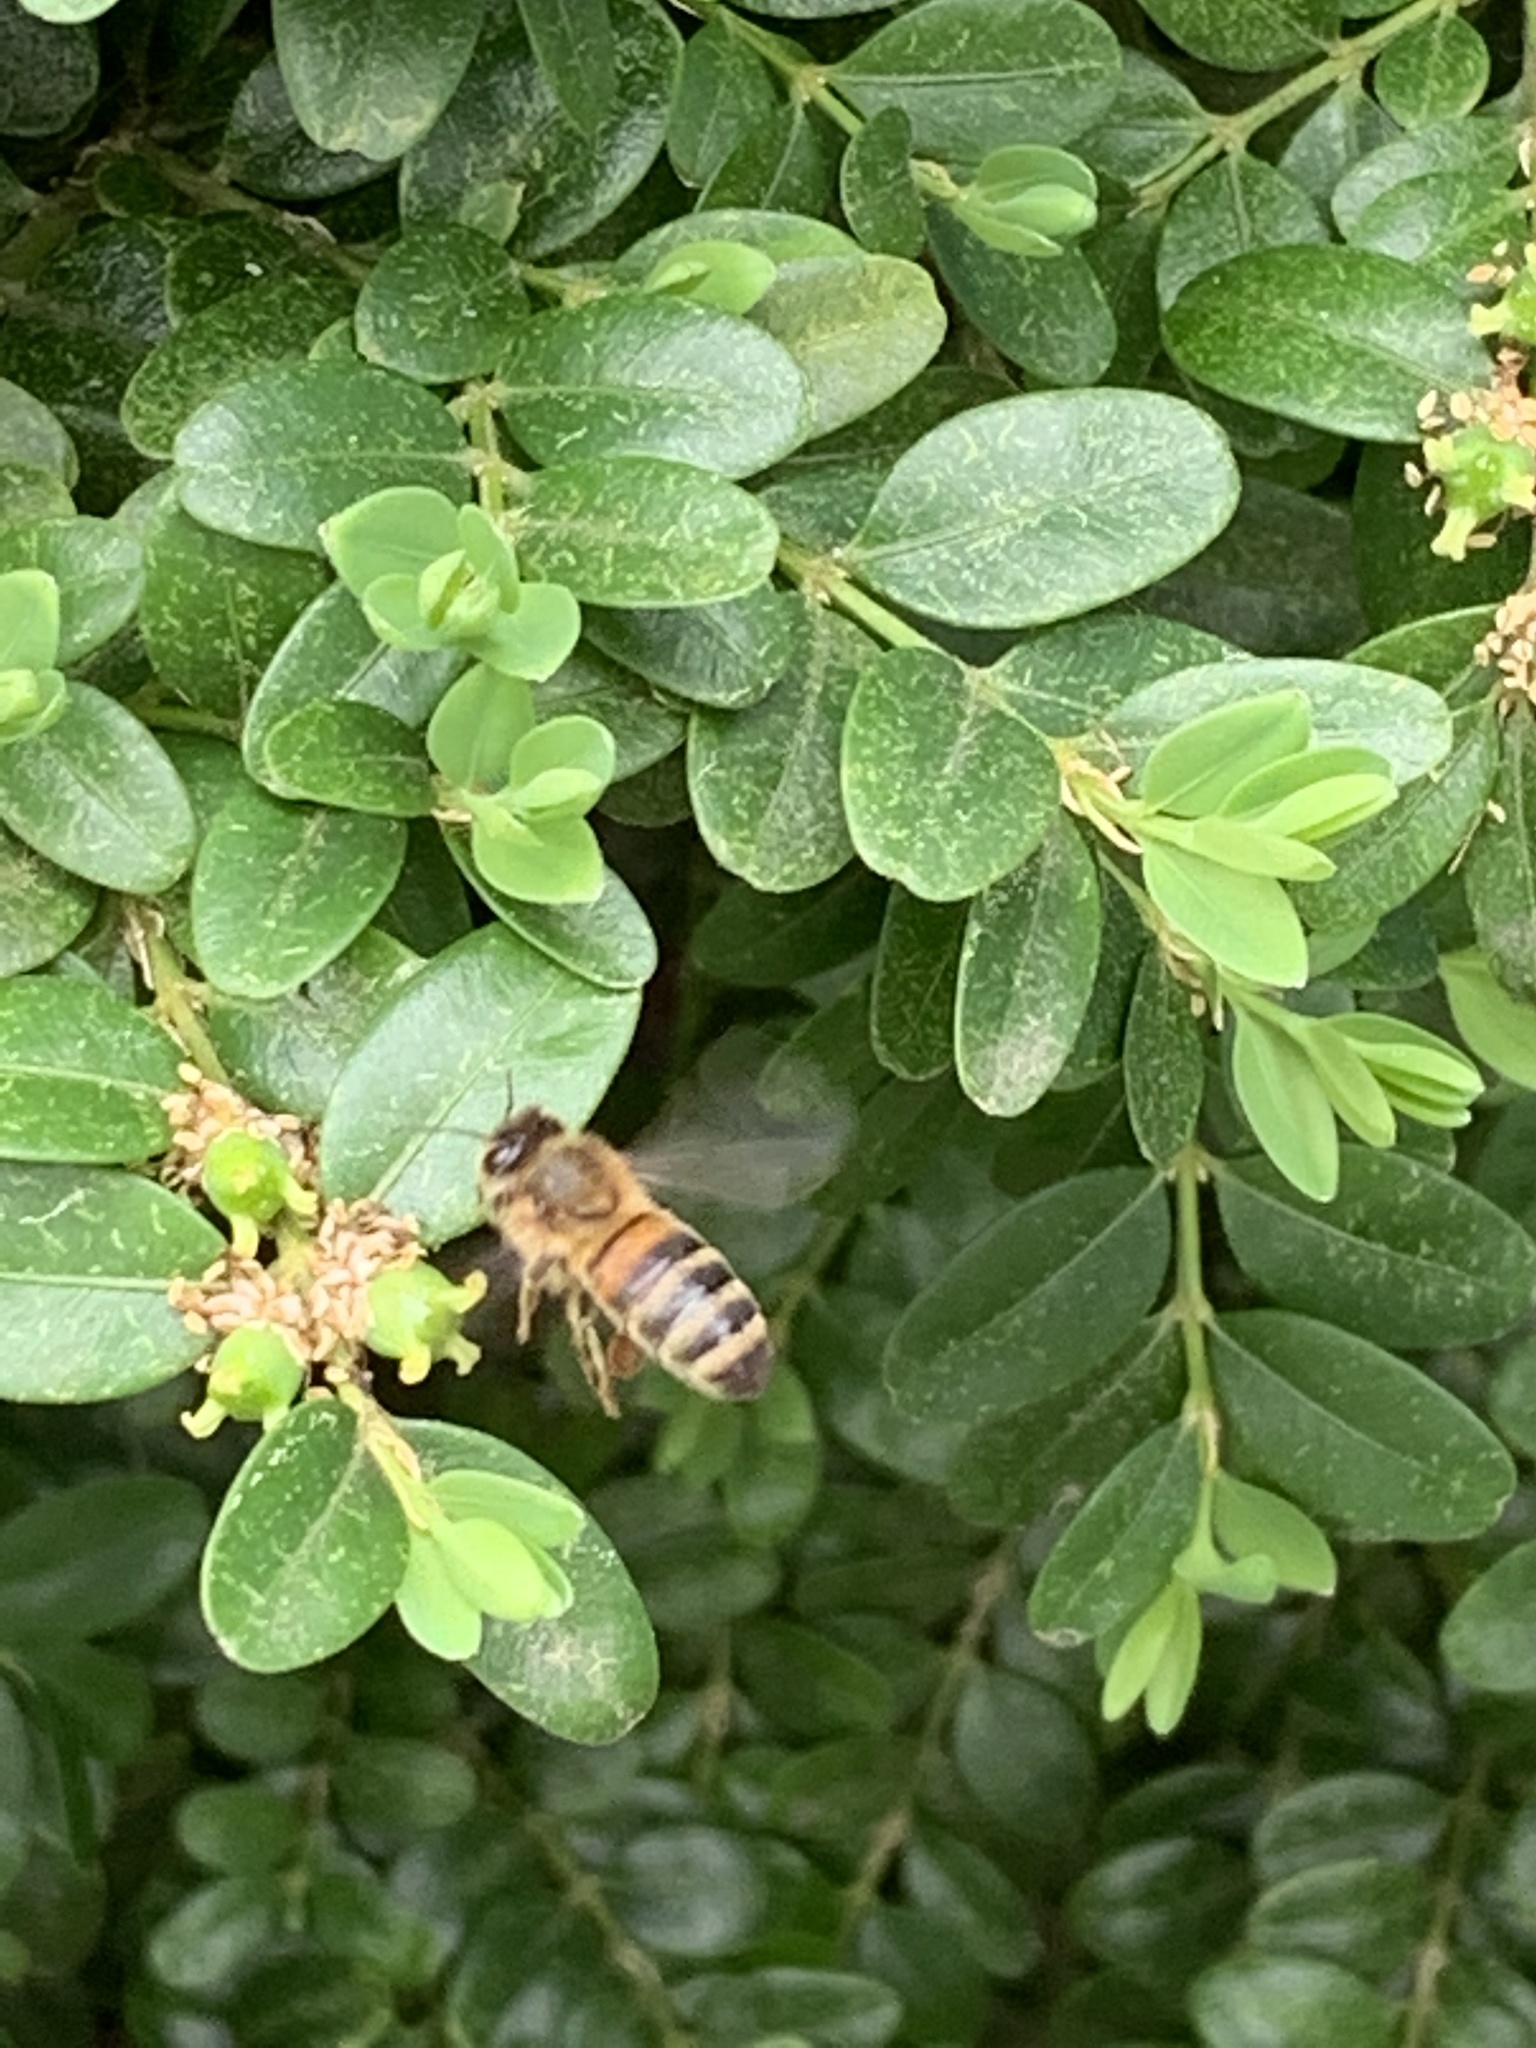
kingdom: Animalia
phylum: Arthropoda
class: Insecta
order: Hymenoptera
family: Apidae
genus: Apis
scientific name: Apis mellifera
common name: Honey bee
